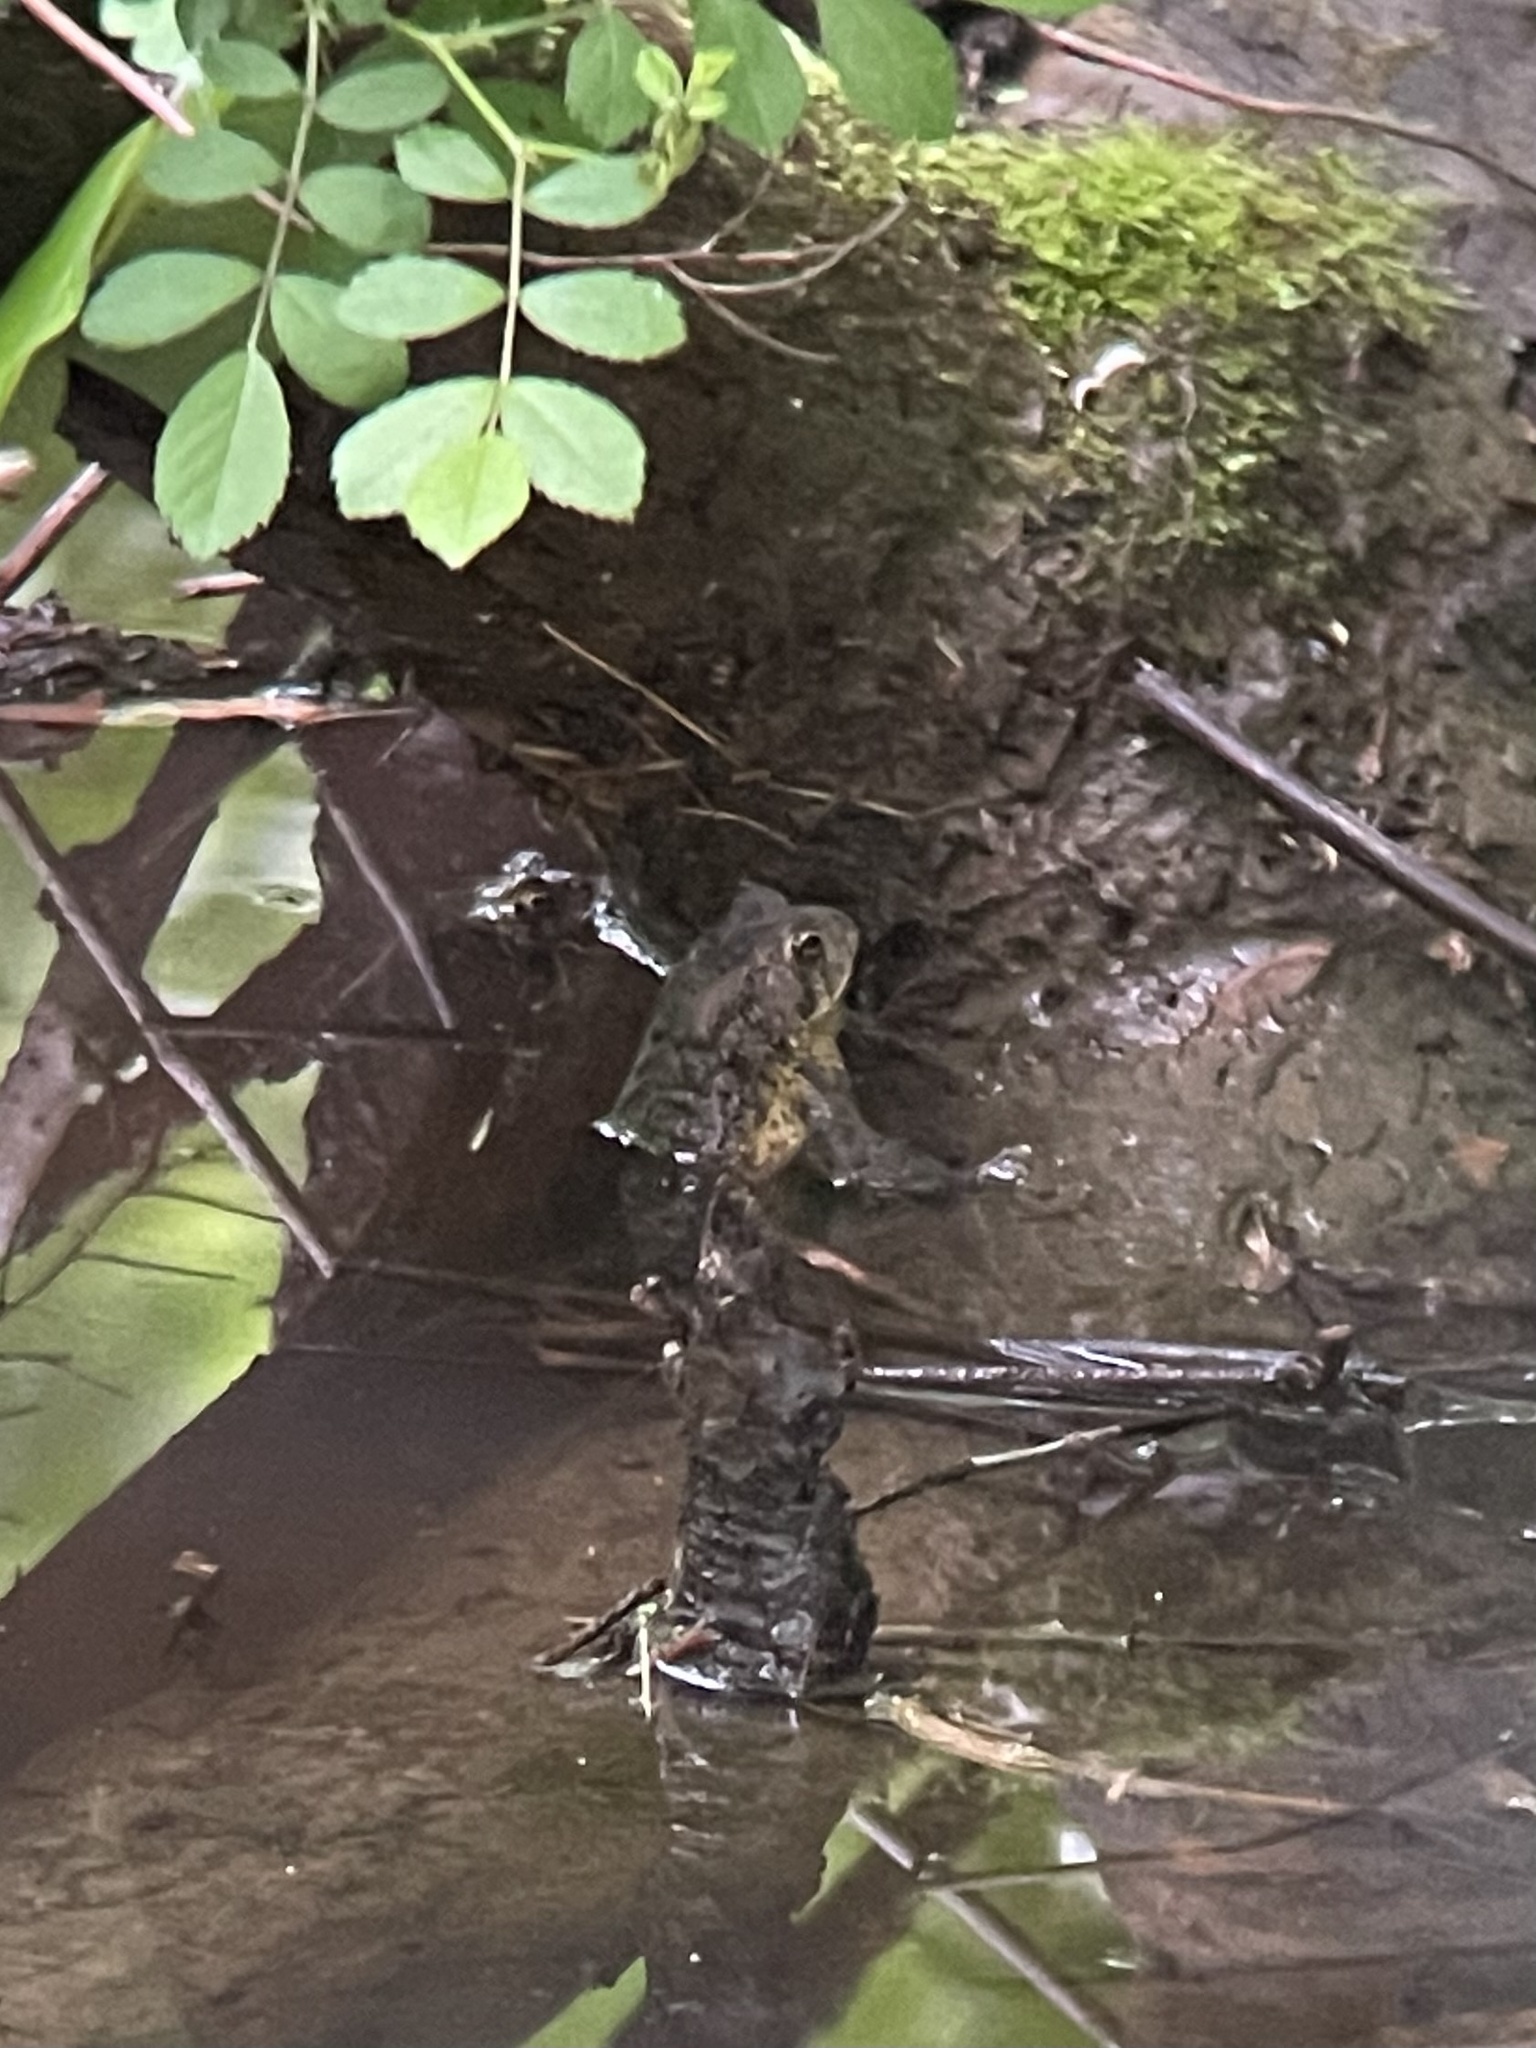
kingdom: Animalia
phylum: Chordata
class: Amphibia
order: Anura
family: Bufonidae
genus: Anaxyrus
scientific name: Anaxyrus americanus
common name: American toad
